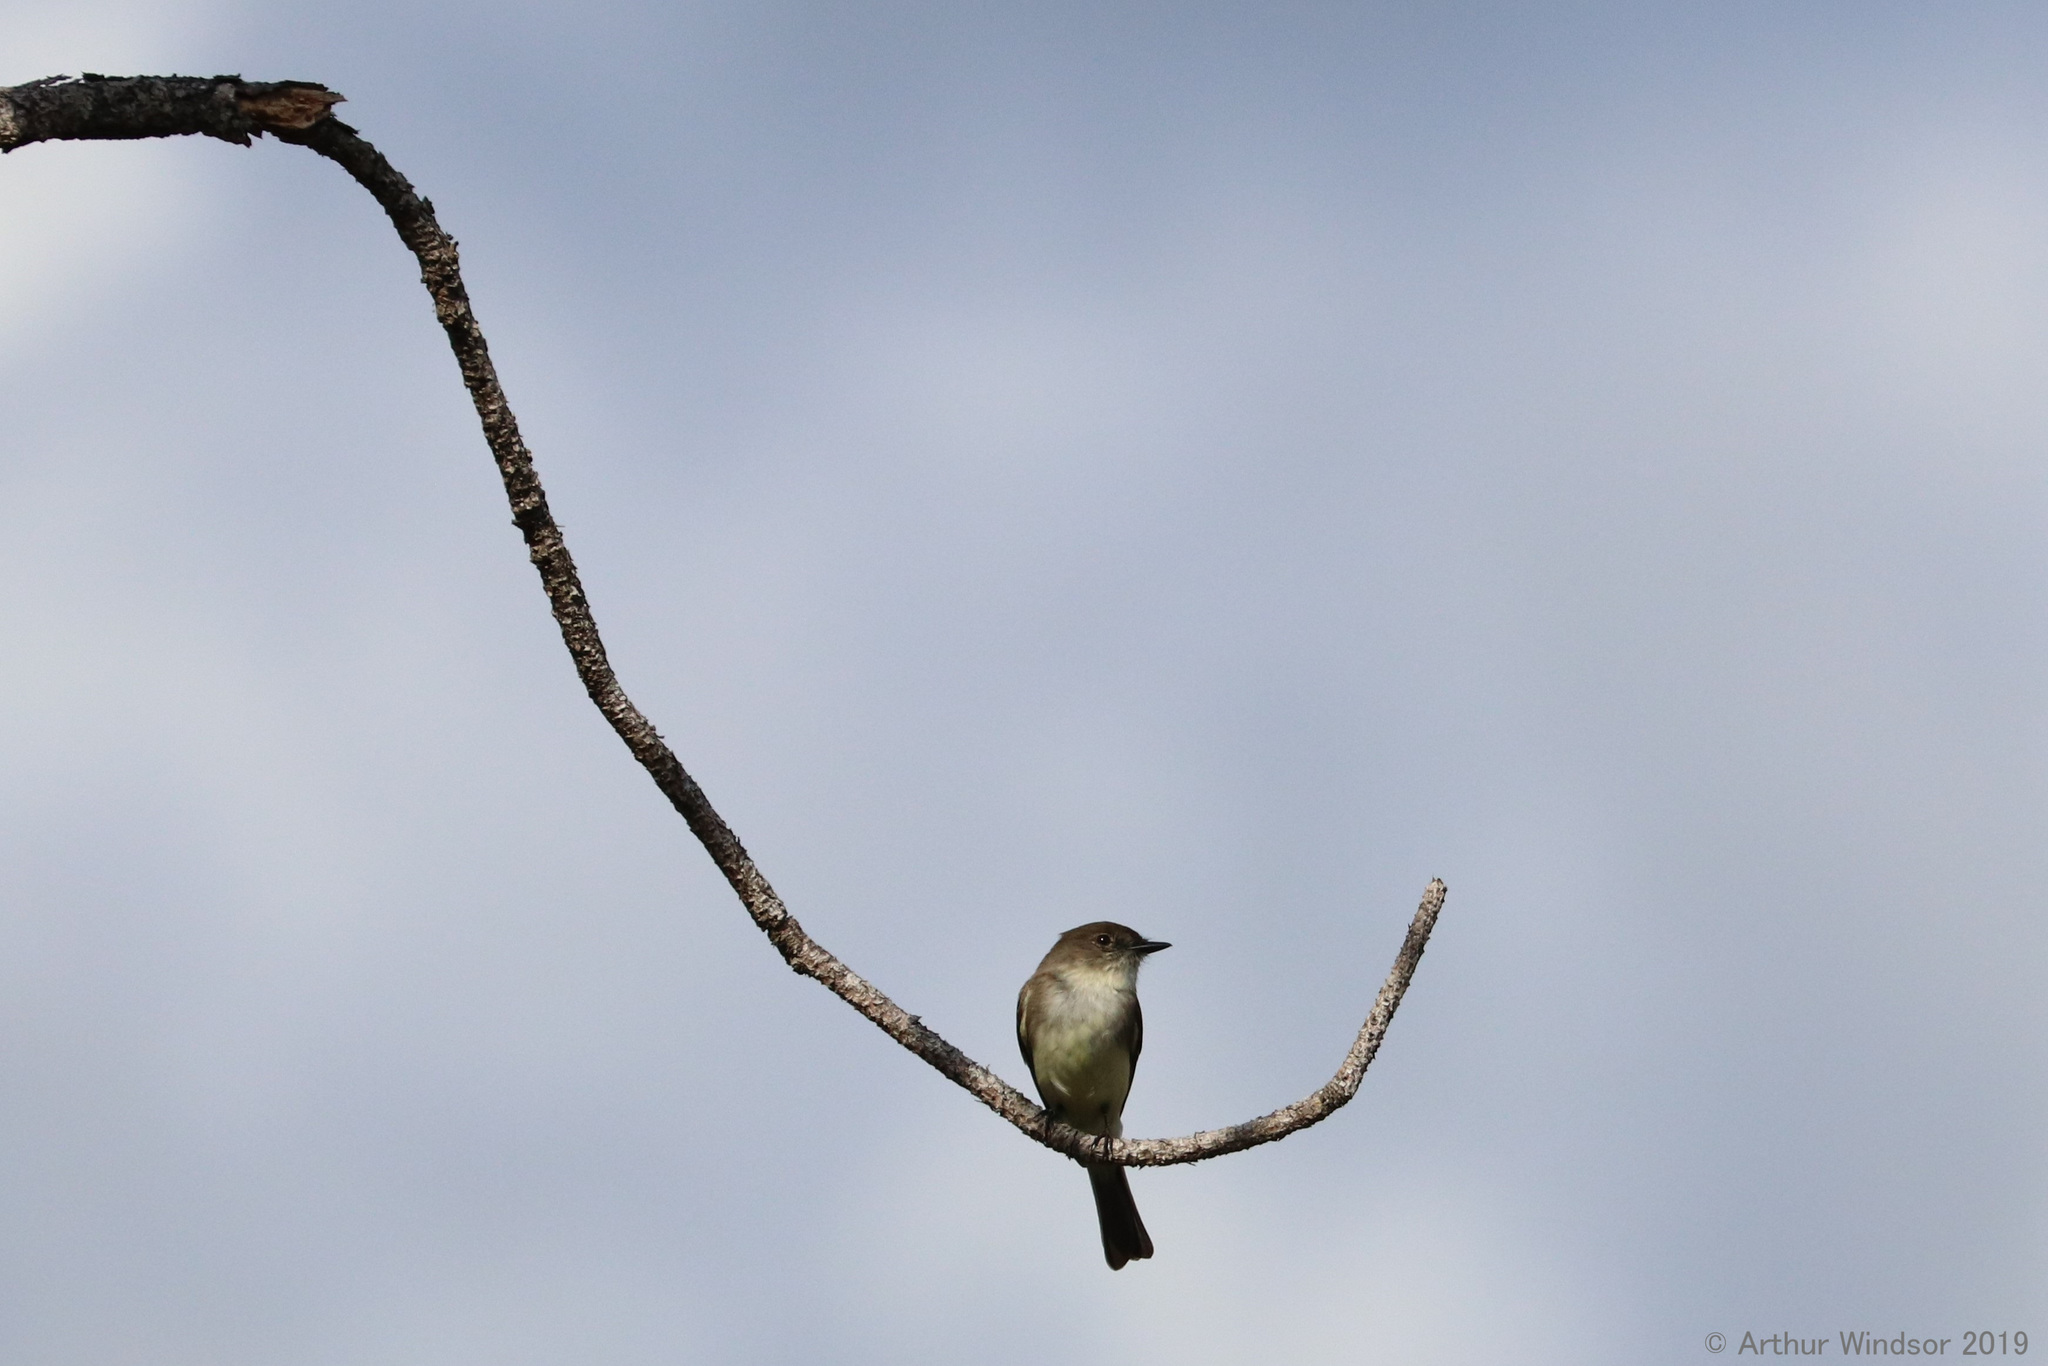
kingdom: Animalia
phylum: Chordata
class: Aves
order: Passeriformes
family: Tyrannidae
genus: Sayornis
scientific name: Sayornis phoebe
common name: Eastern phoebe
